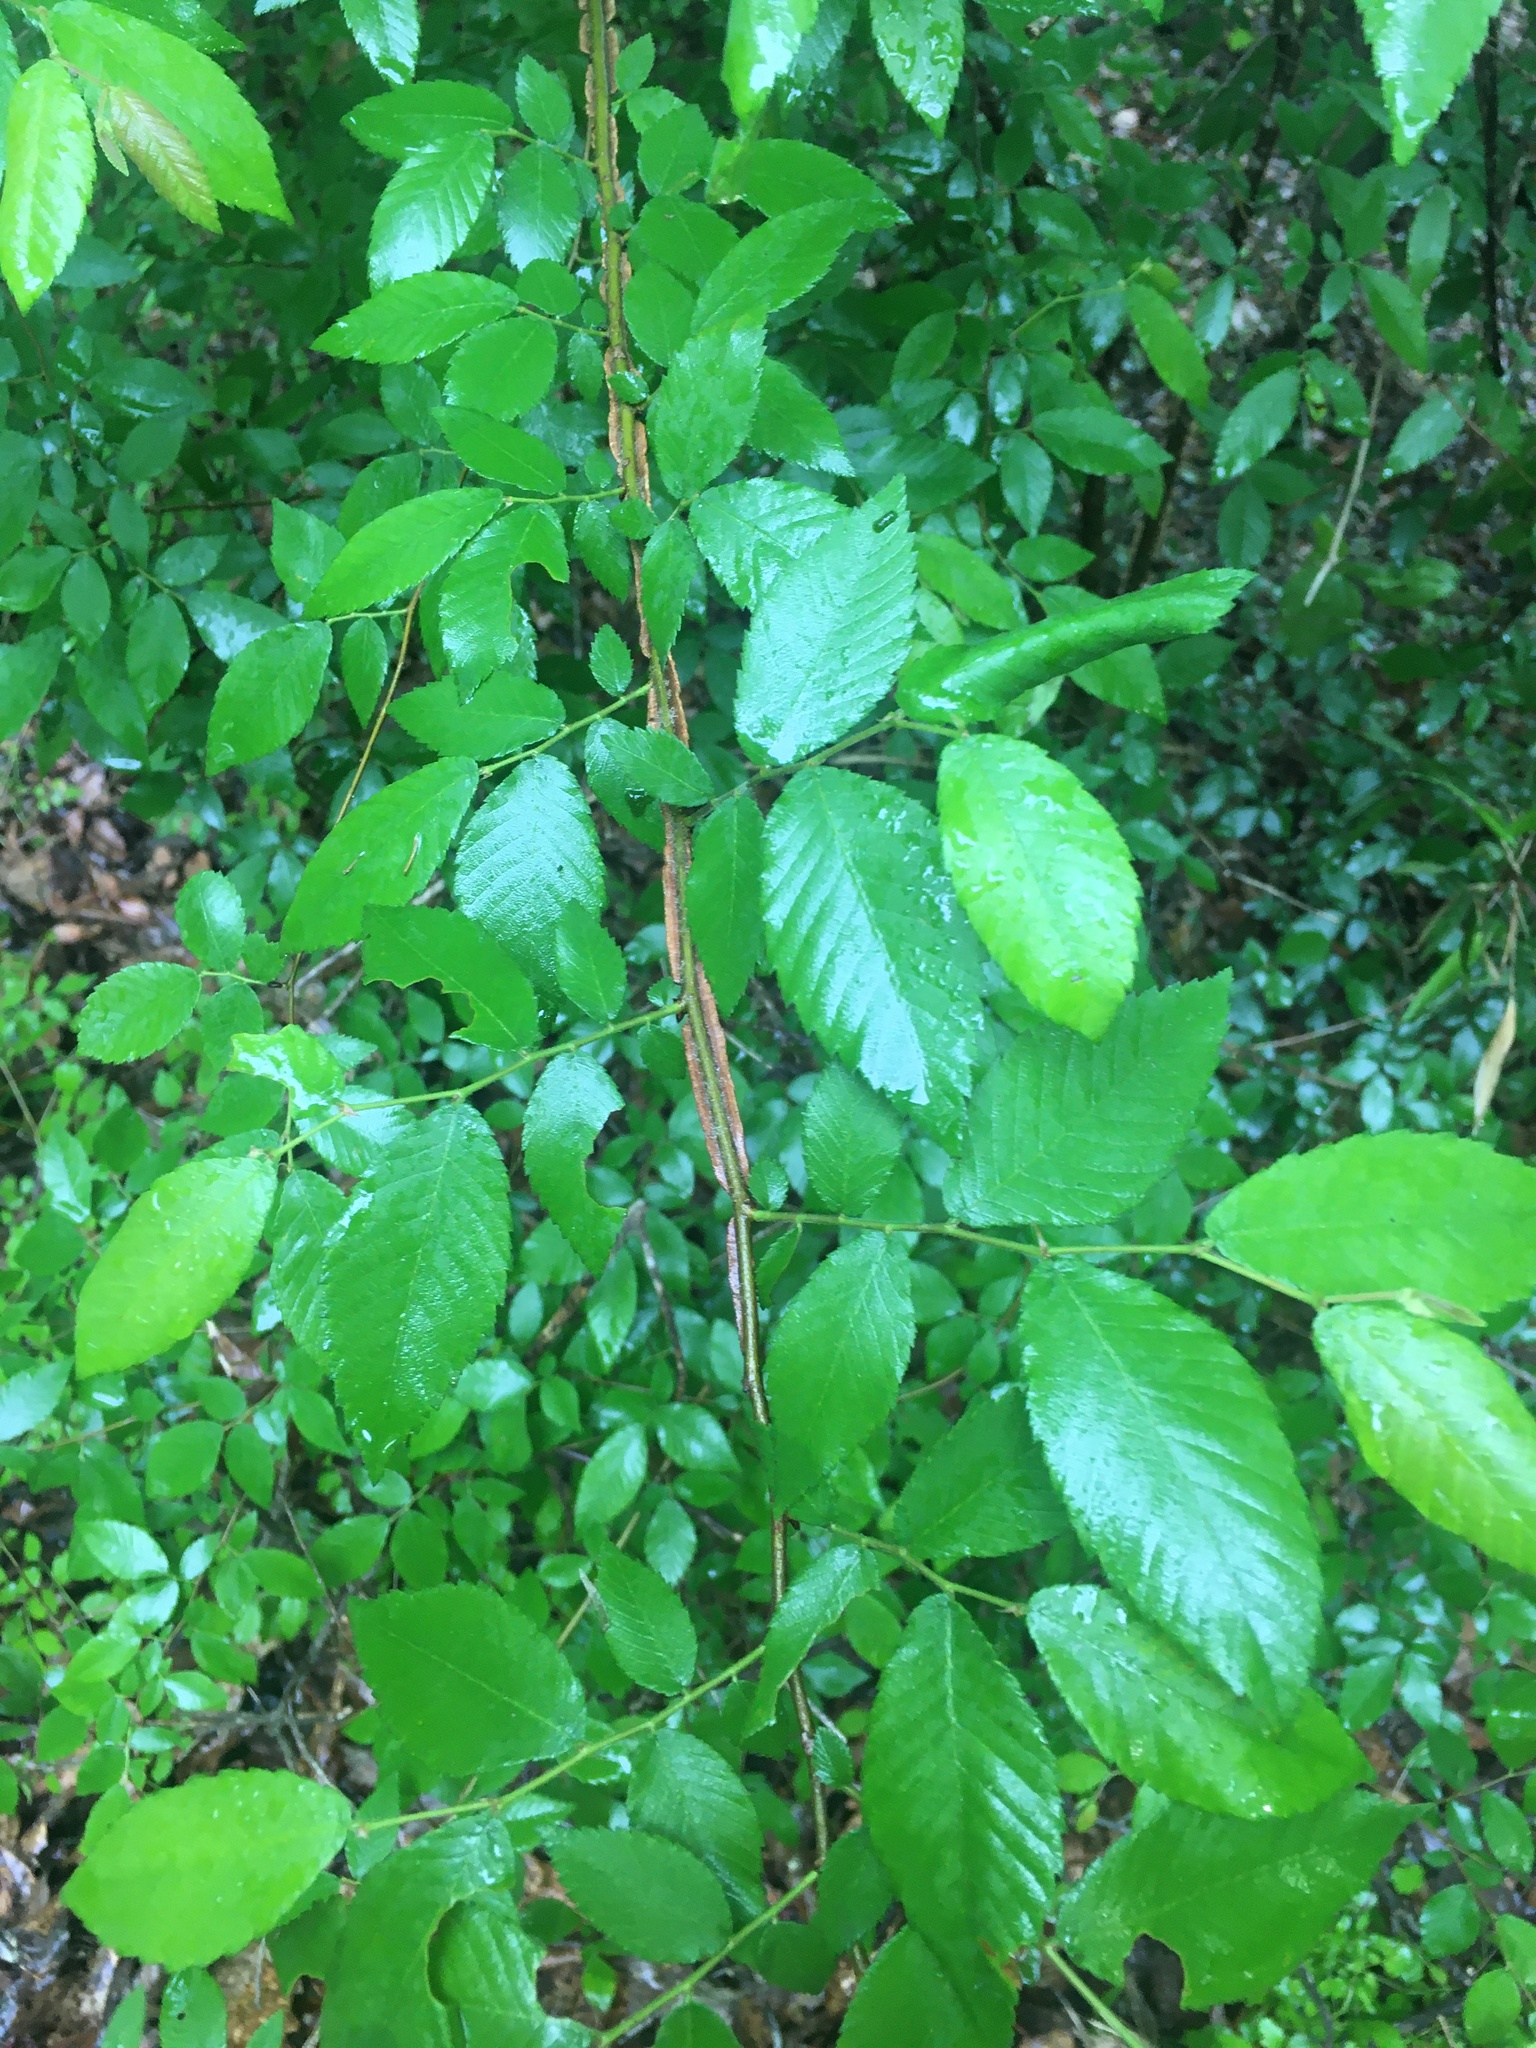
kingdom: Plantae
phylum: Tracheophyta
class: Magnoliopsida
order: Rosales
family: Ulmaceae
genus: Ulmus
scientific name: Ulmus alata
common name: Winged elm
